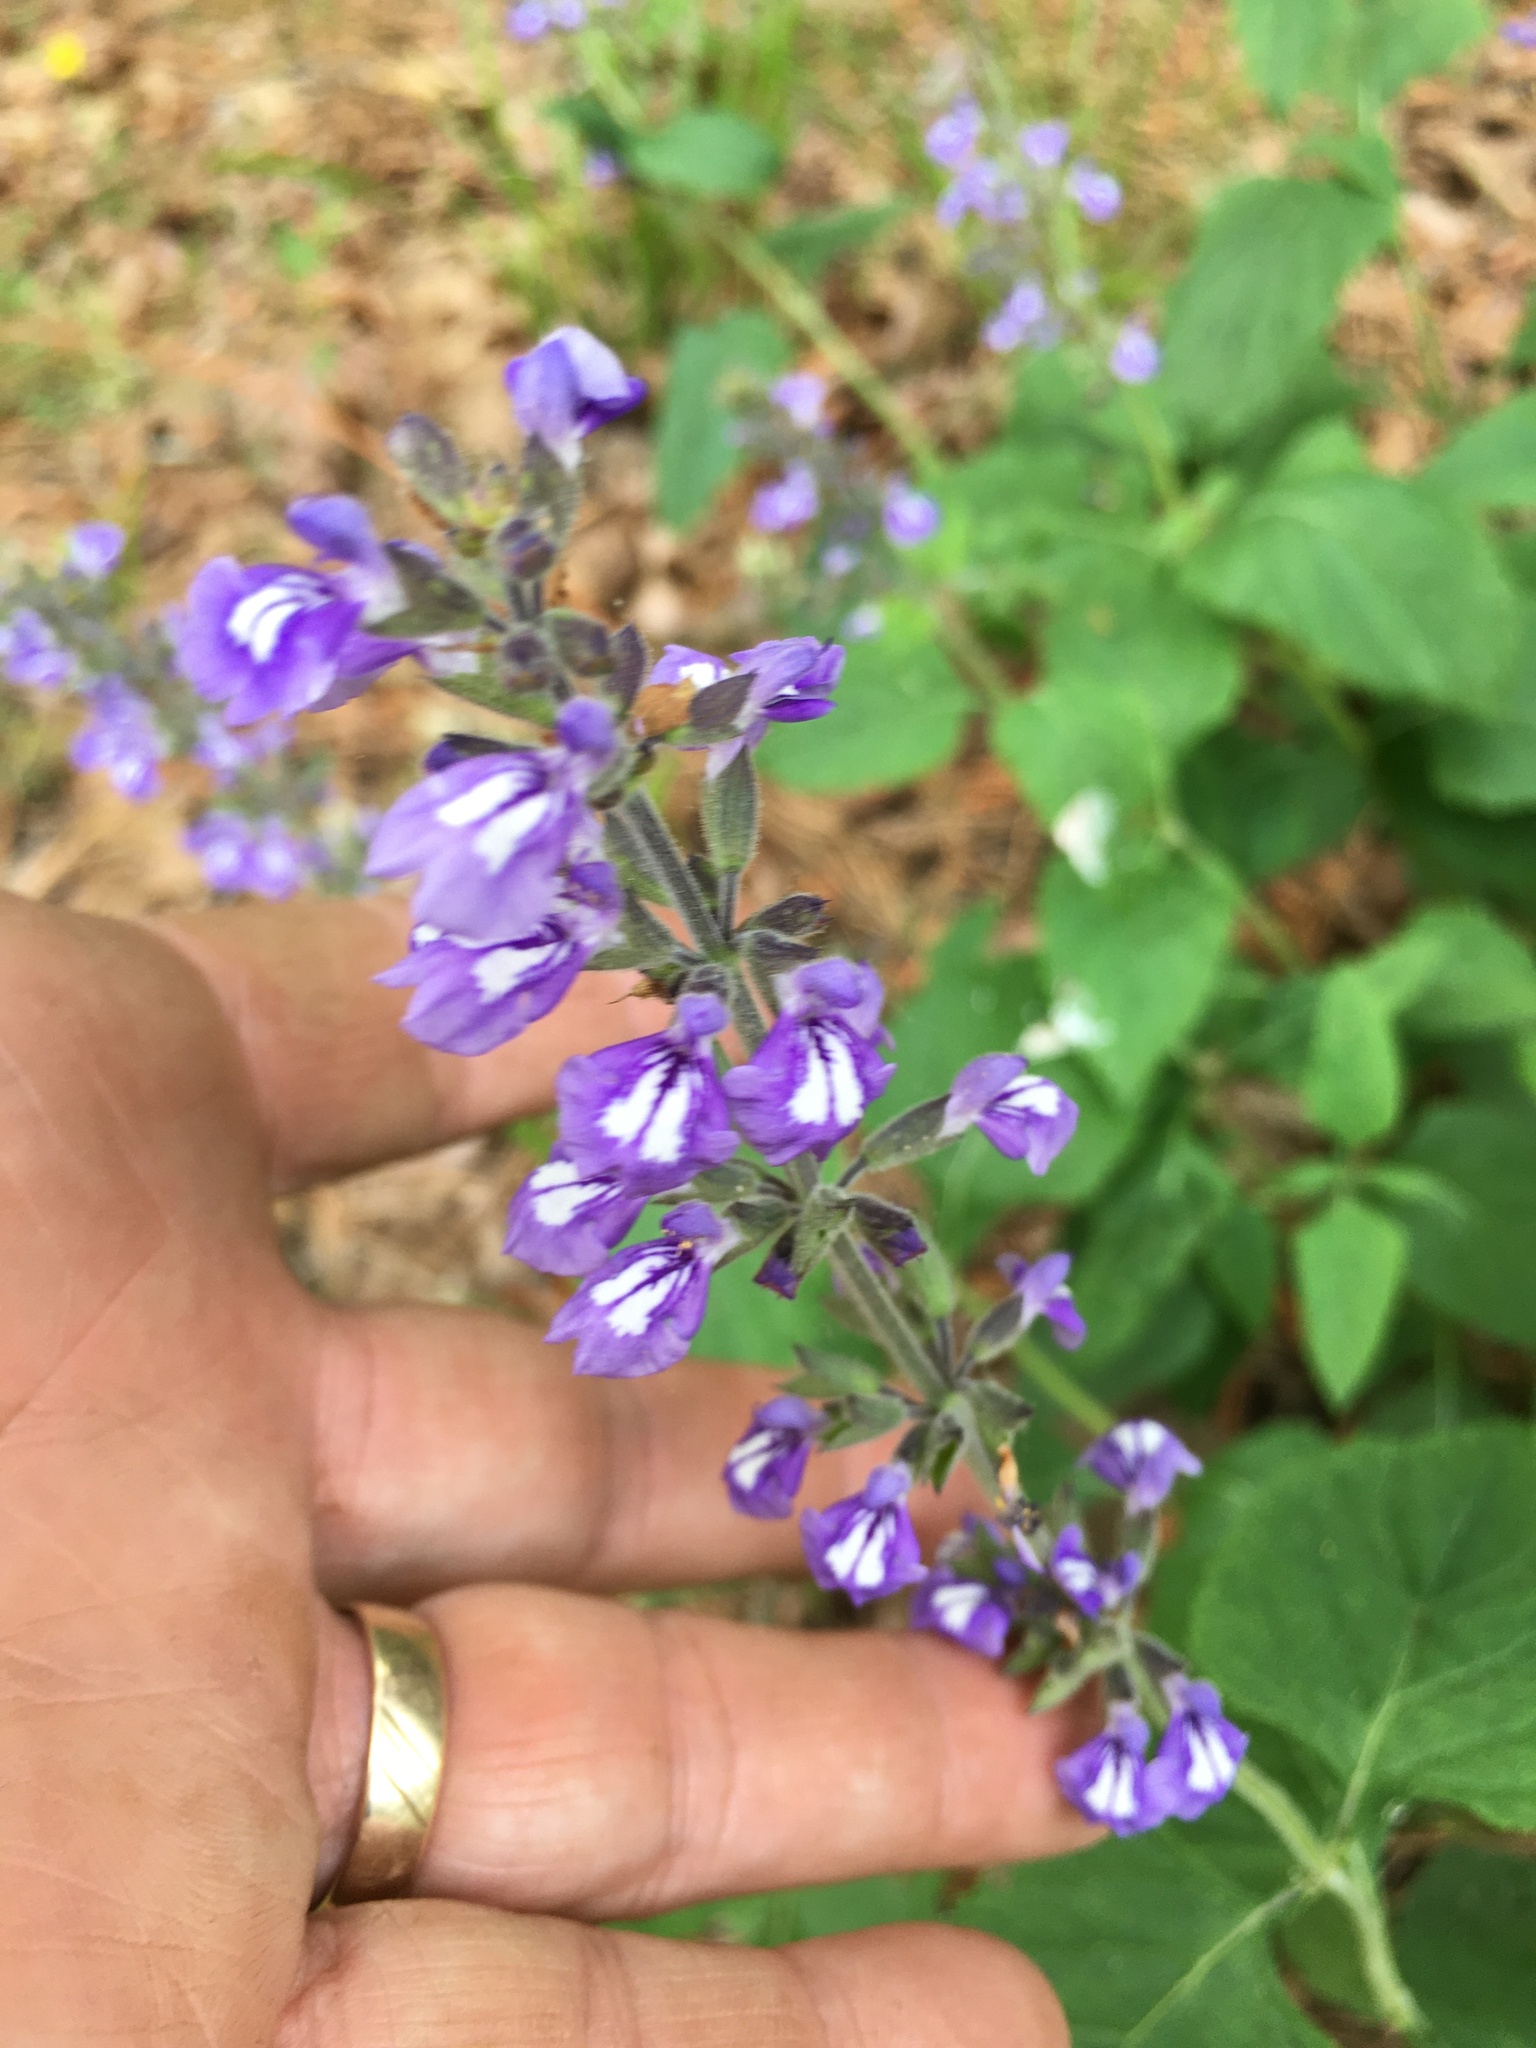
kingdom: Plantae
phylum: Tracheophyta
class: Magnoliopsida
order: Lamiales
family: Lamiaceae
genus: Salvia
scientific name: Salvia urticifolia
